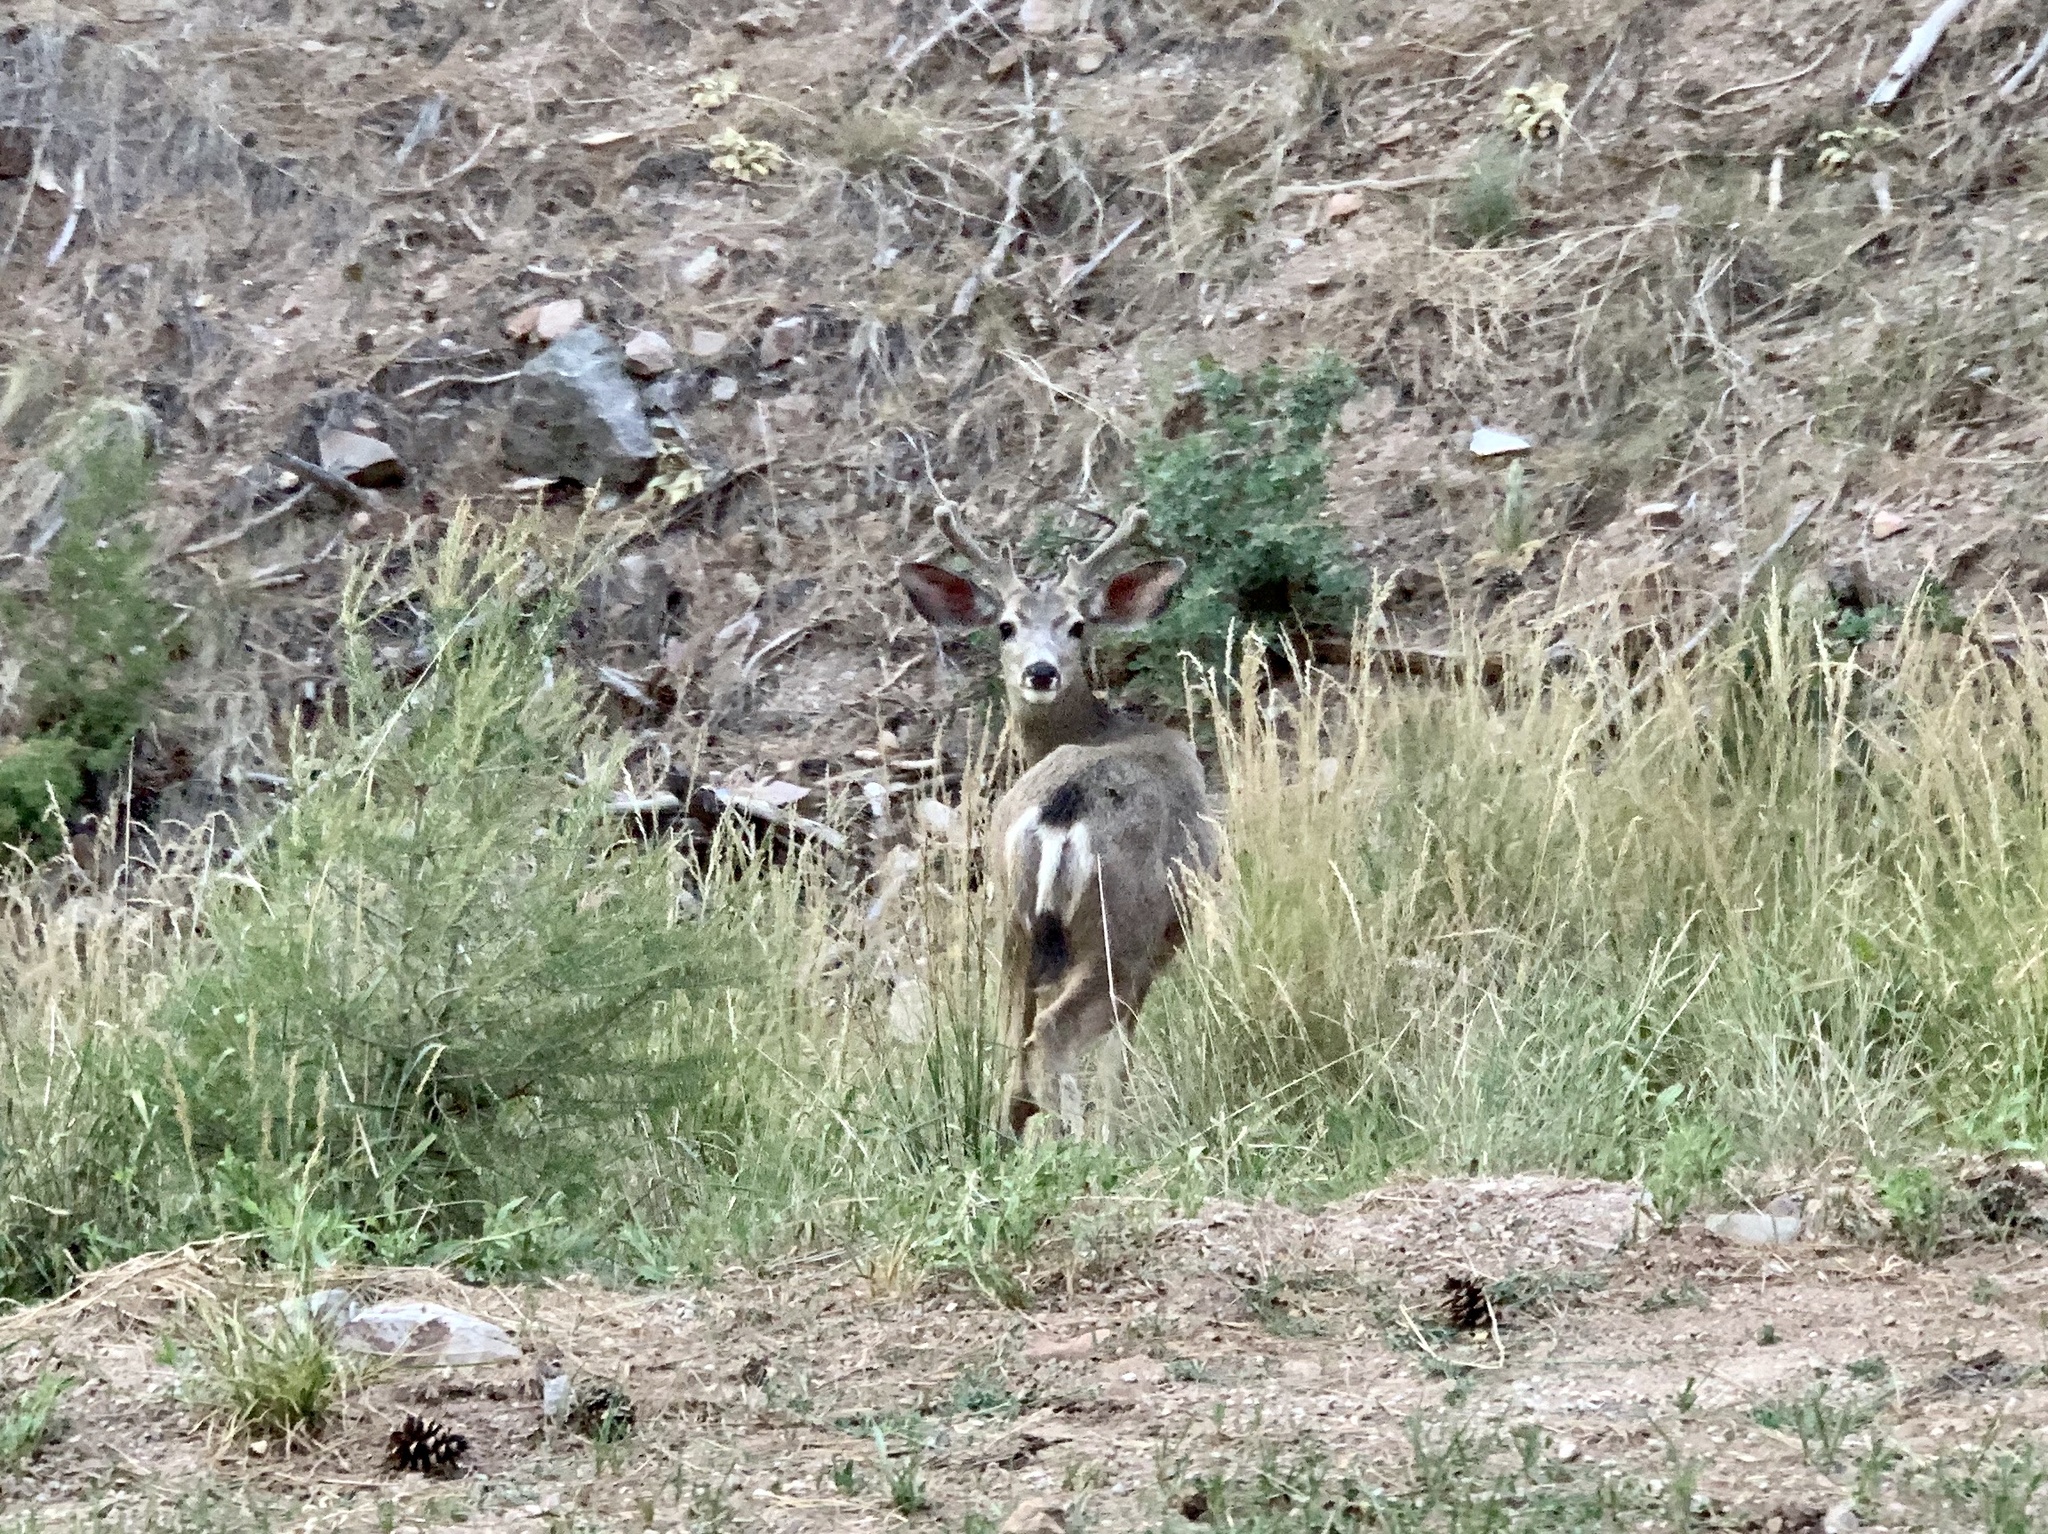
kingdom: Animalia
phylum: Chordata
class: Mammalia
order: Artiodactyla
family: Cervidae
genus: Odocoileus
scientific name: Odocoileus hemionus
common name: Mule deer
